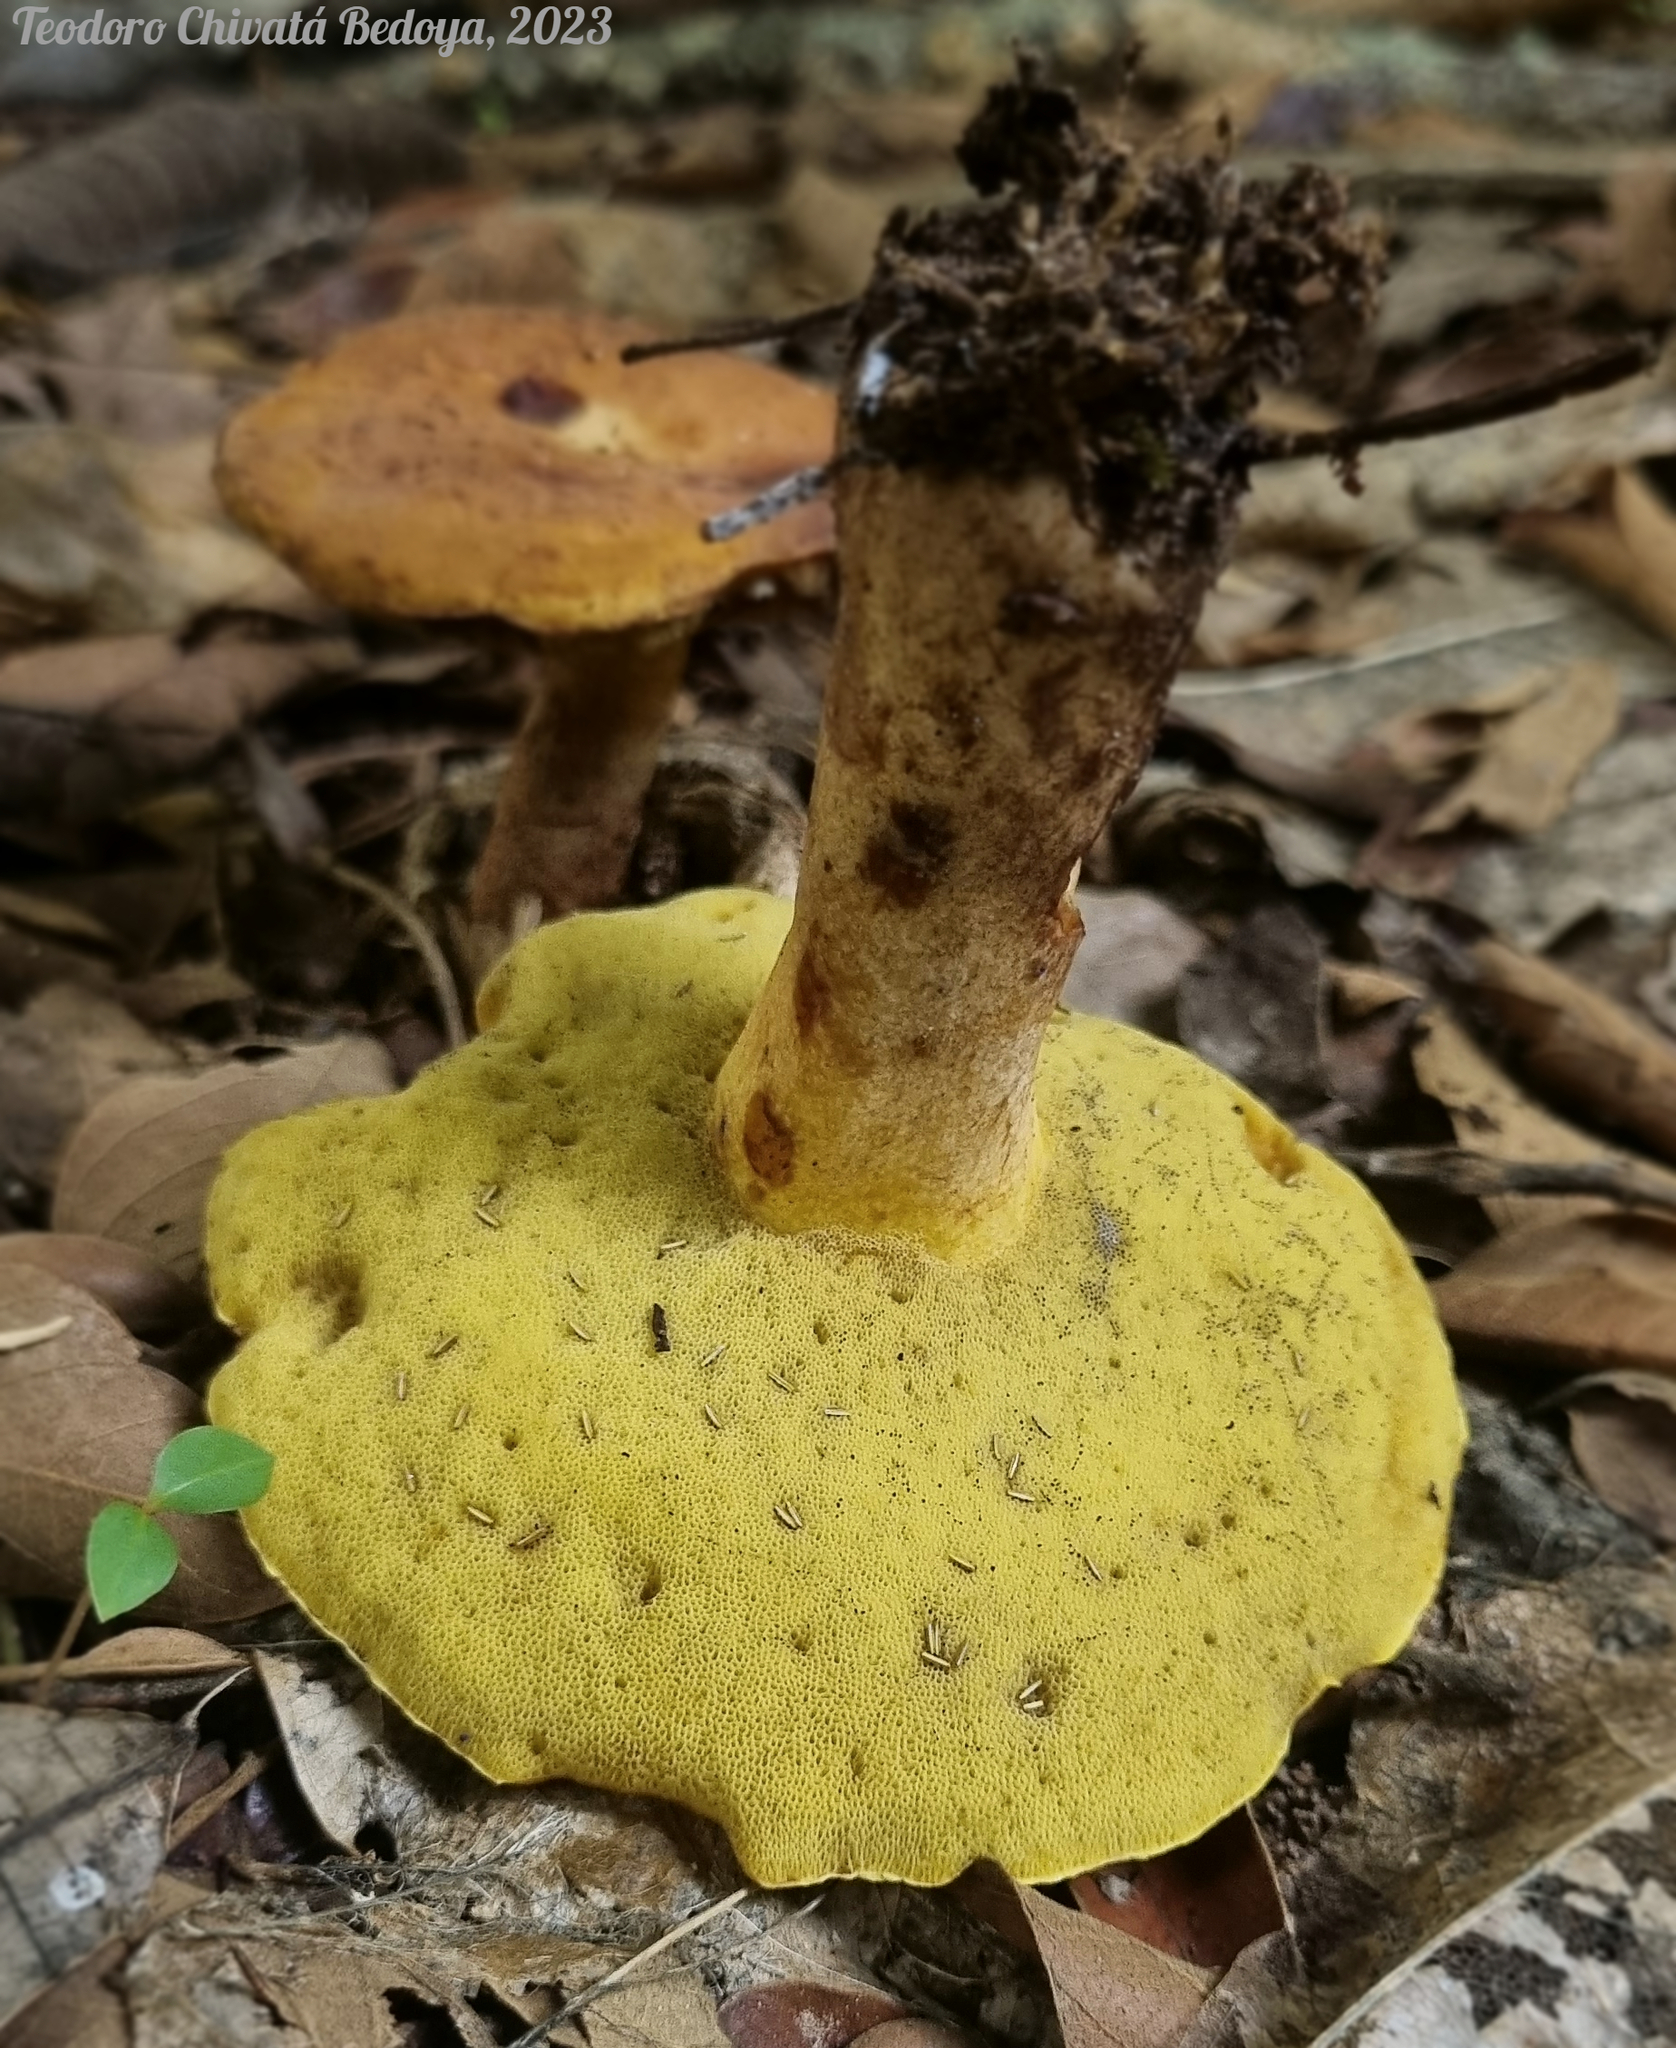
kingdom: Fungi
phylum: Basidiomycota
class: Agaricomycetes
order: Boletales
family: Boletinellaceae
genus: Phlebopus
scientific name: Phlebopus beniensis
